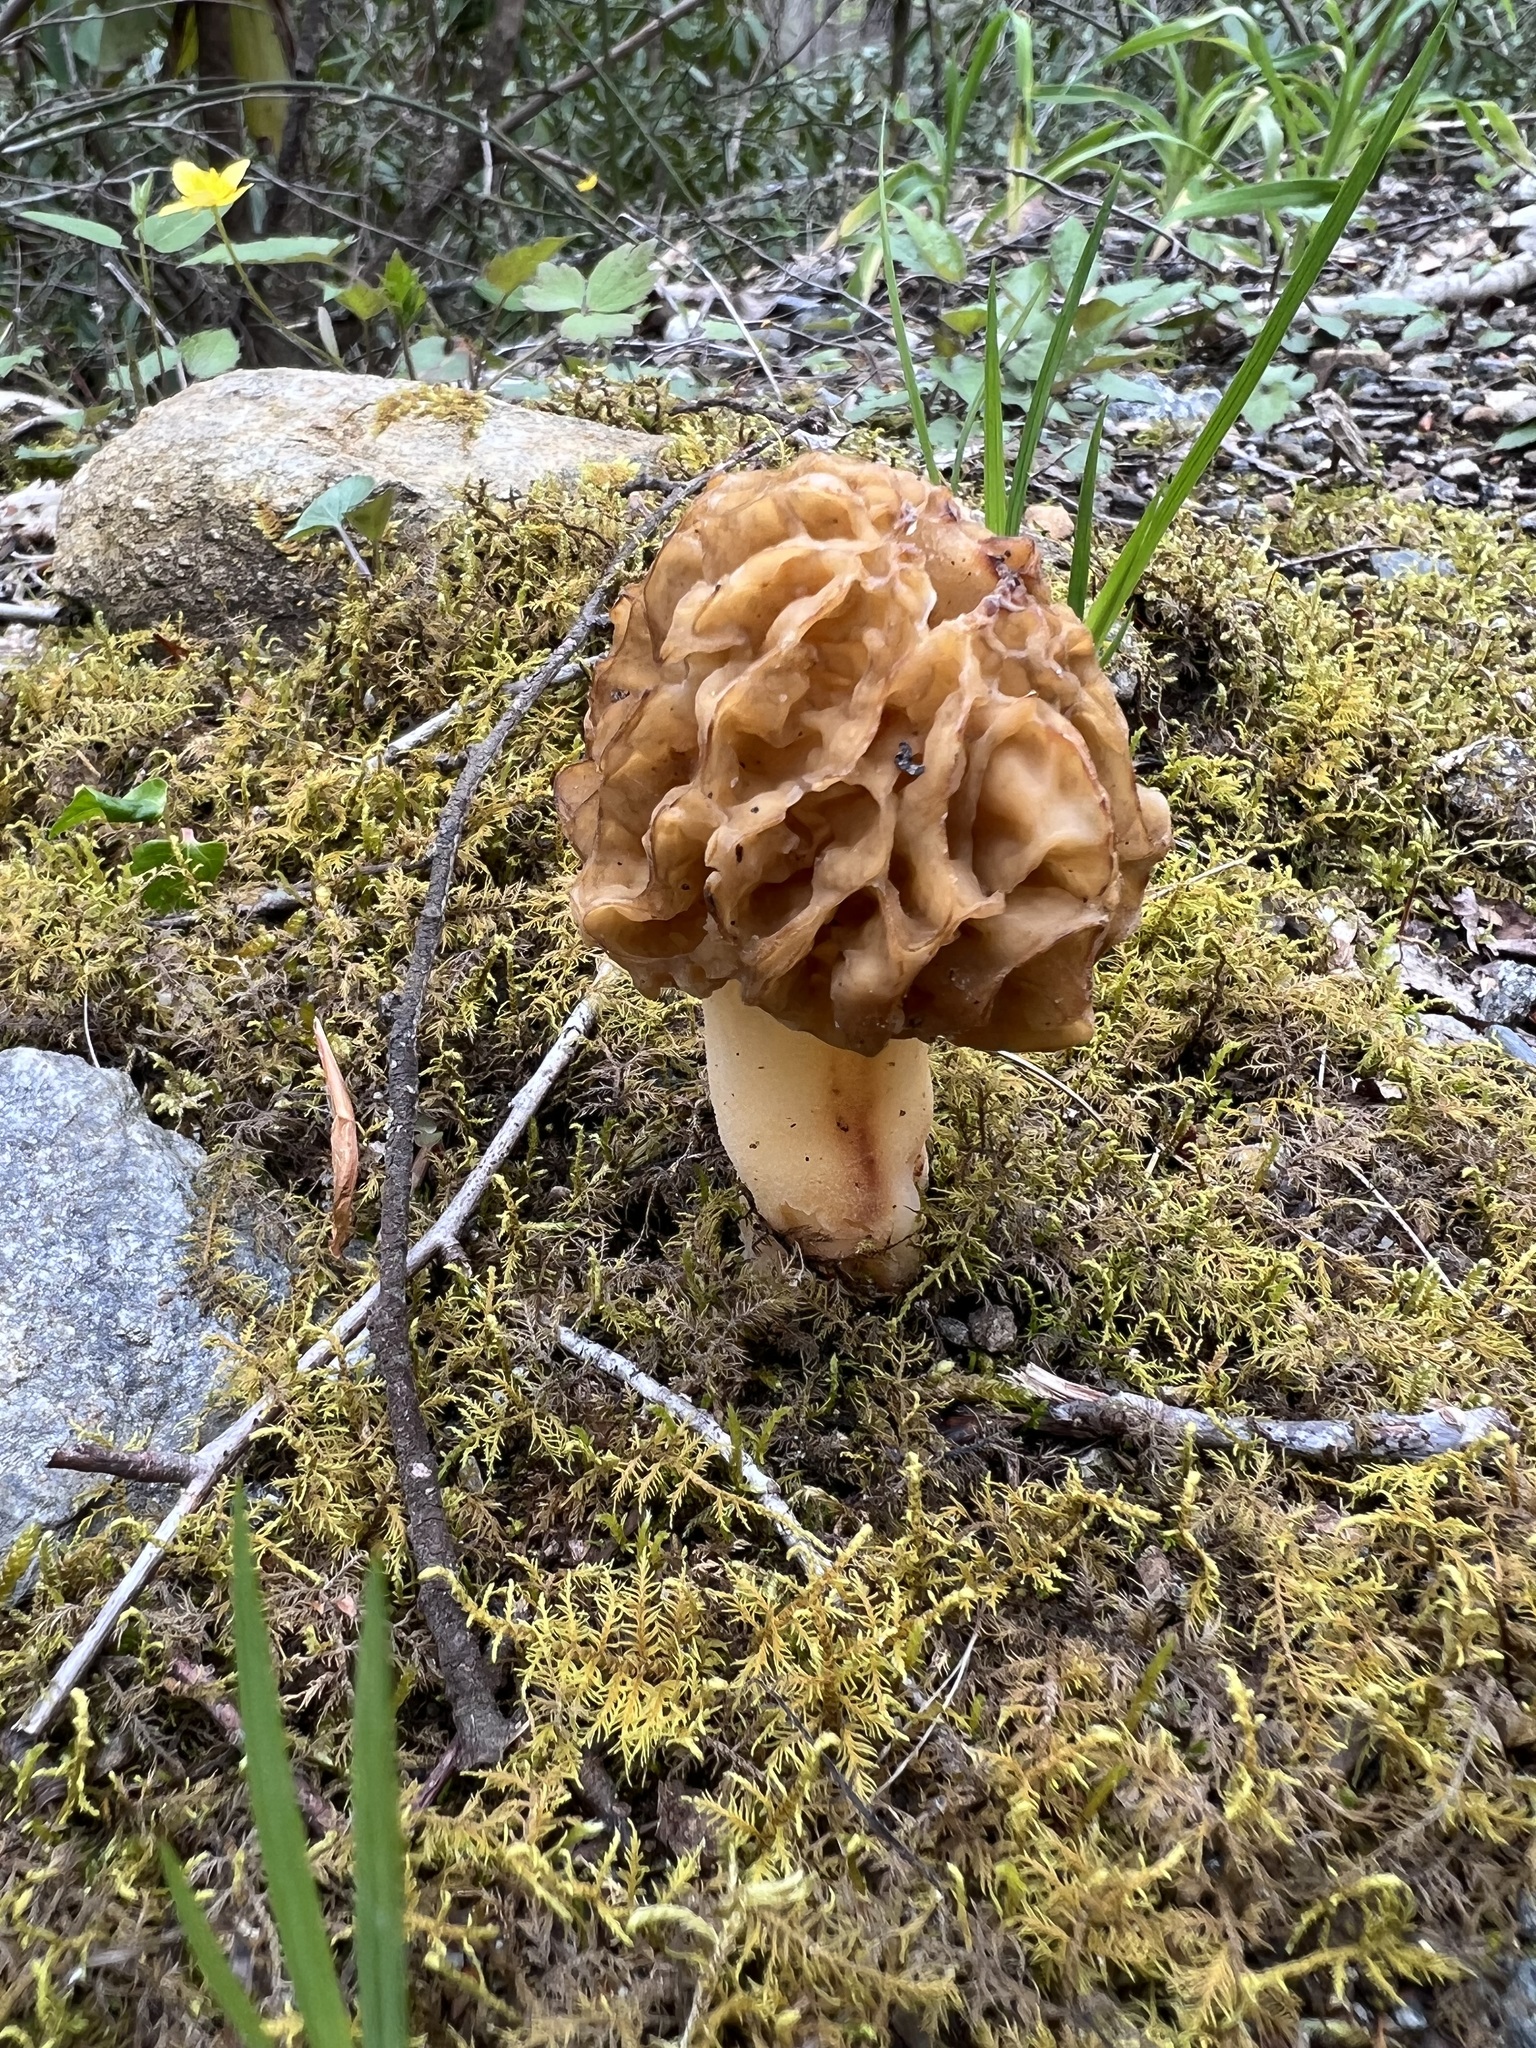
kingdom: Fungi
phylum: Ascomycota
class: Pezizomycetes
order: Pezizales
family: Morchellaceae
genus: Morchella
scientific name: Morchella americana
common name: White morel
